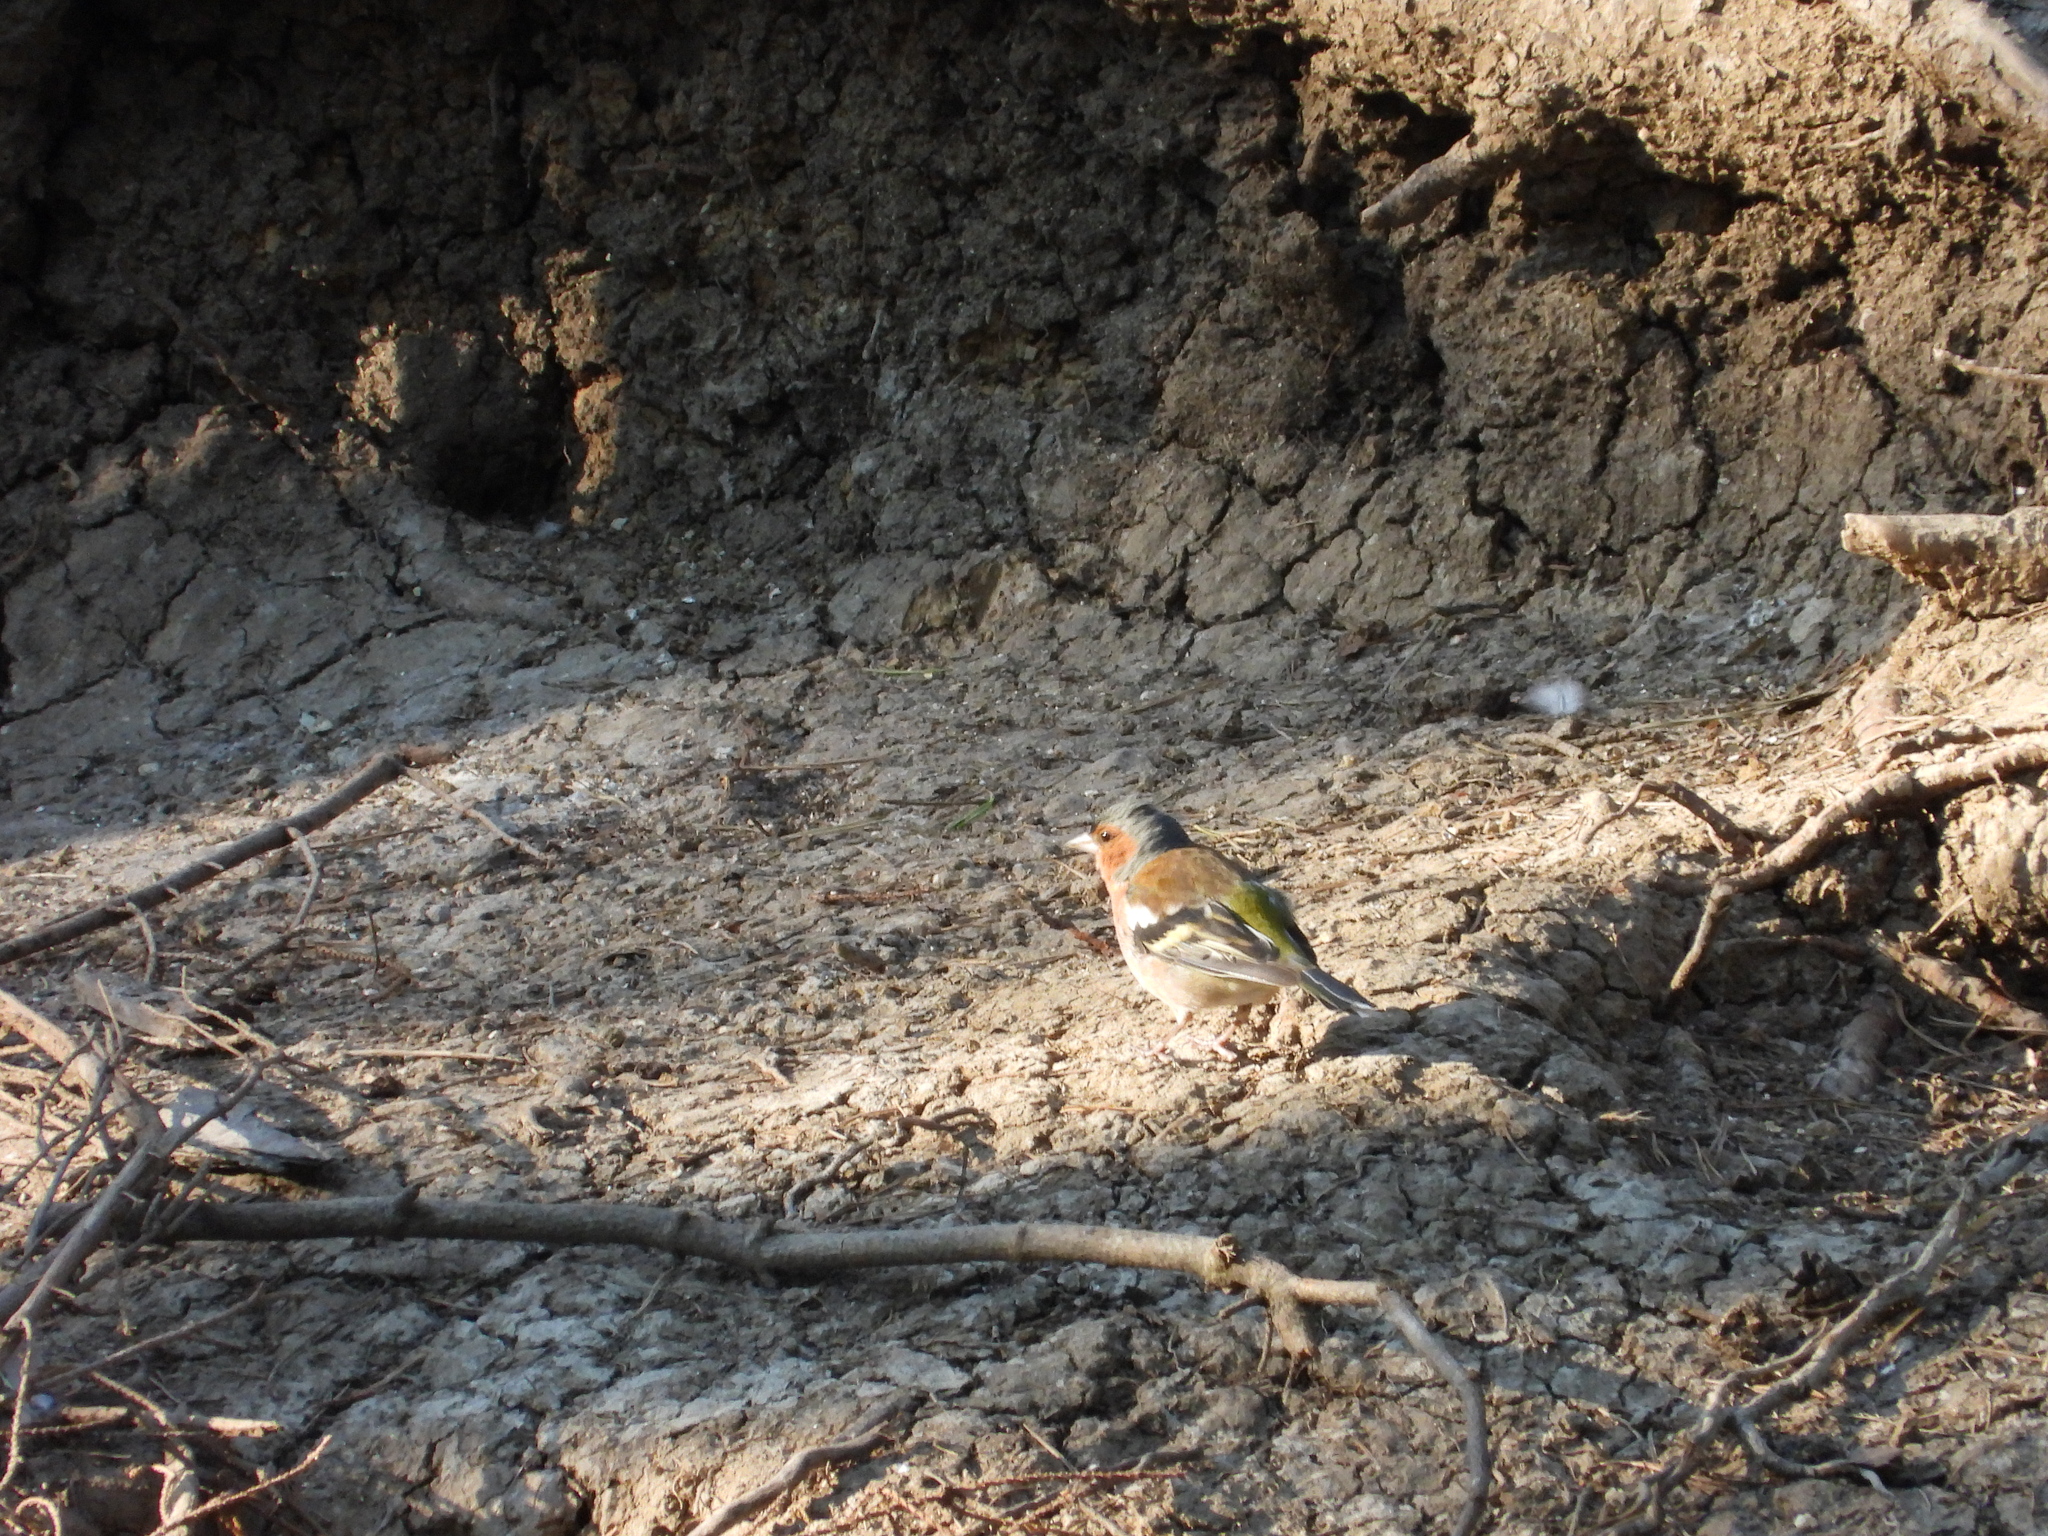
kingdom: Animalia
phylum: Chordata
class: Aves
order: Passeriformes
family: Fringillidae
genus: Fringilla
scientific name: Fringilla coelebs
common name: Common chaffinch
